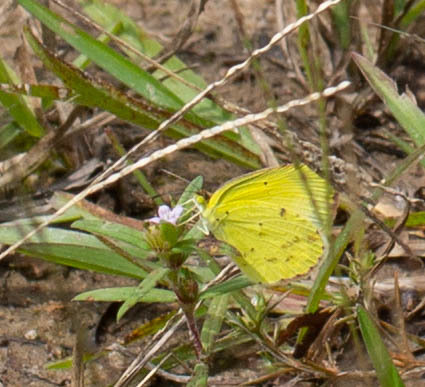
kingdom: Animalia
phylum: Arthropoda
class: Insecta
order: Lepidoptera
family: Pieridae
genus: Pyrisitia
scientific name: Pyrisitia lisa
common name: Little yellow
